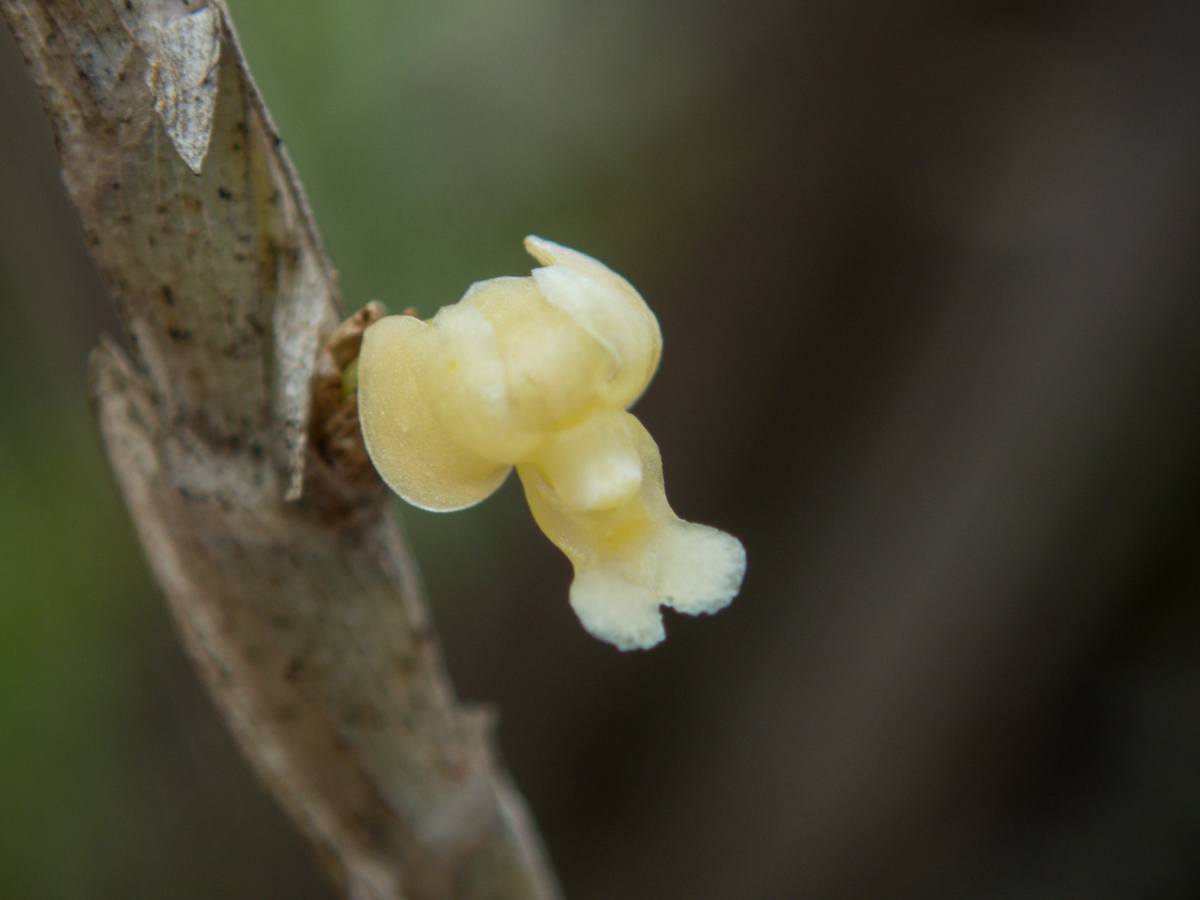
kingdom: Plantae
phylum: Tracheophyta
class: Liliopsida
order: Asparagales
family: Orchidaceae
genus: Dendrobium
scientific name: Dendrobium aloifolium
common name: Aloe-like dendrobium
